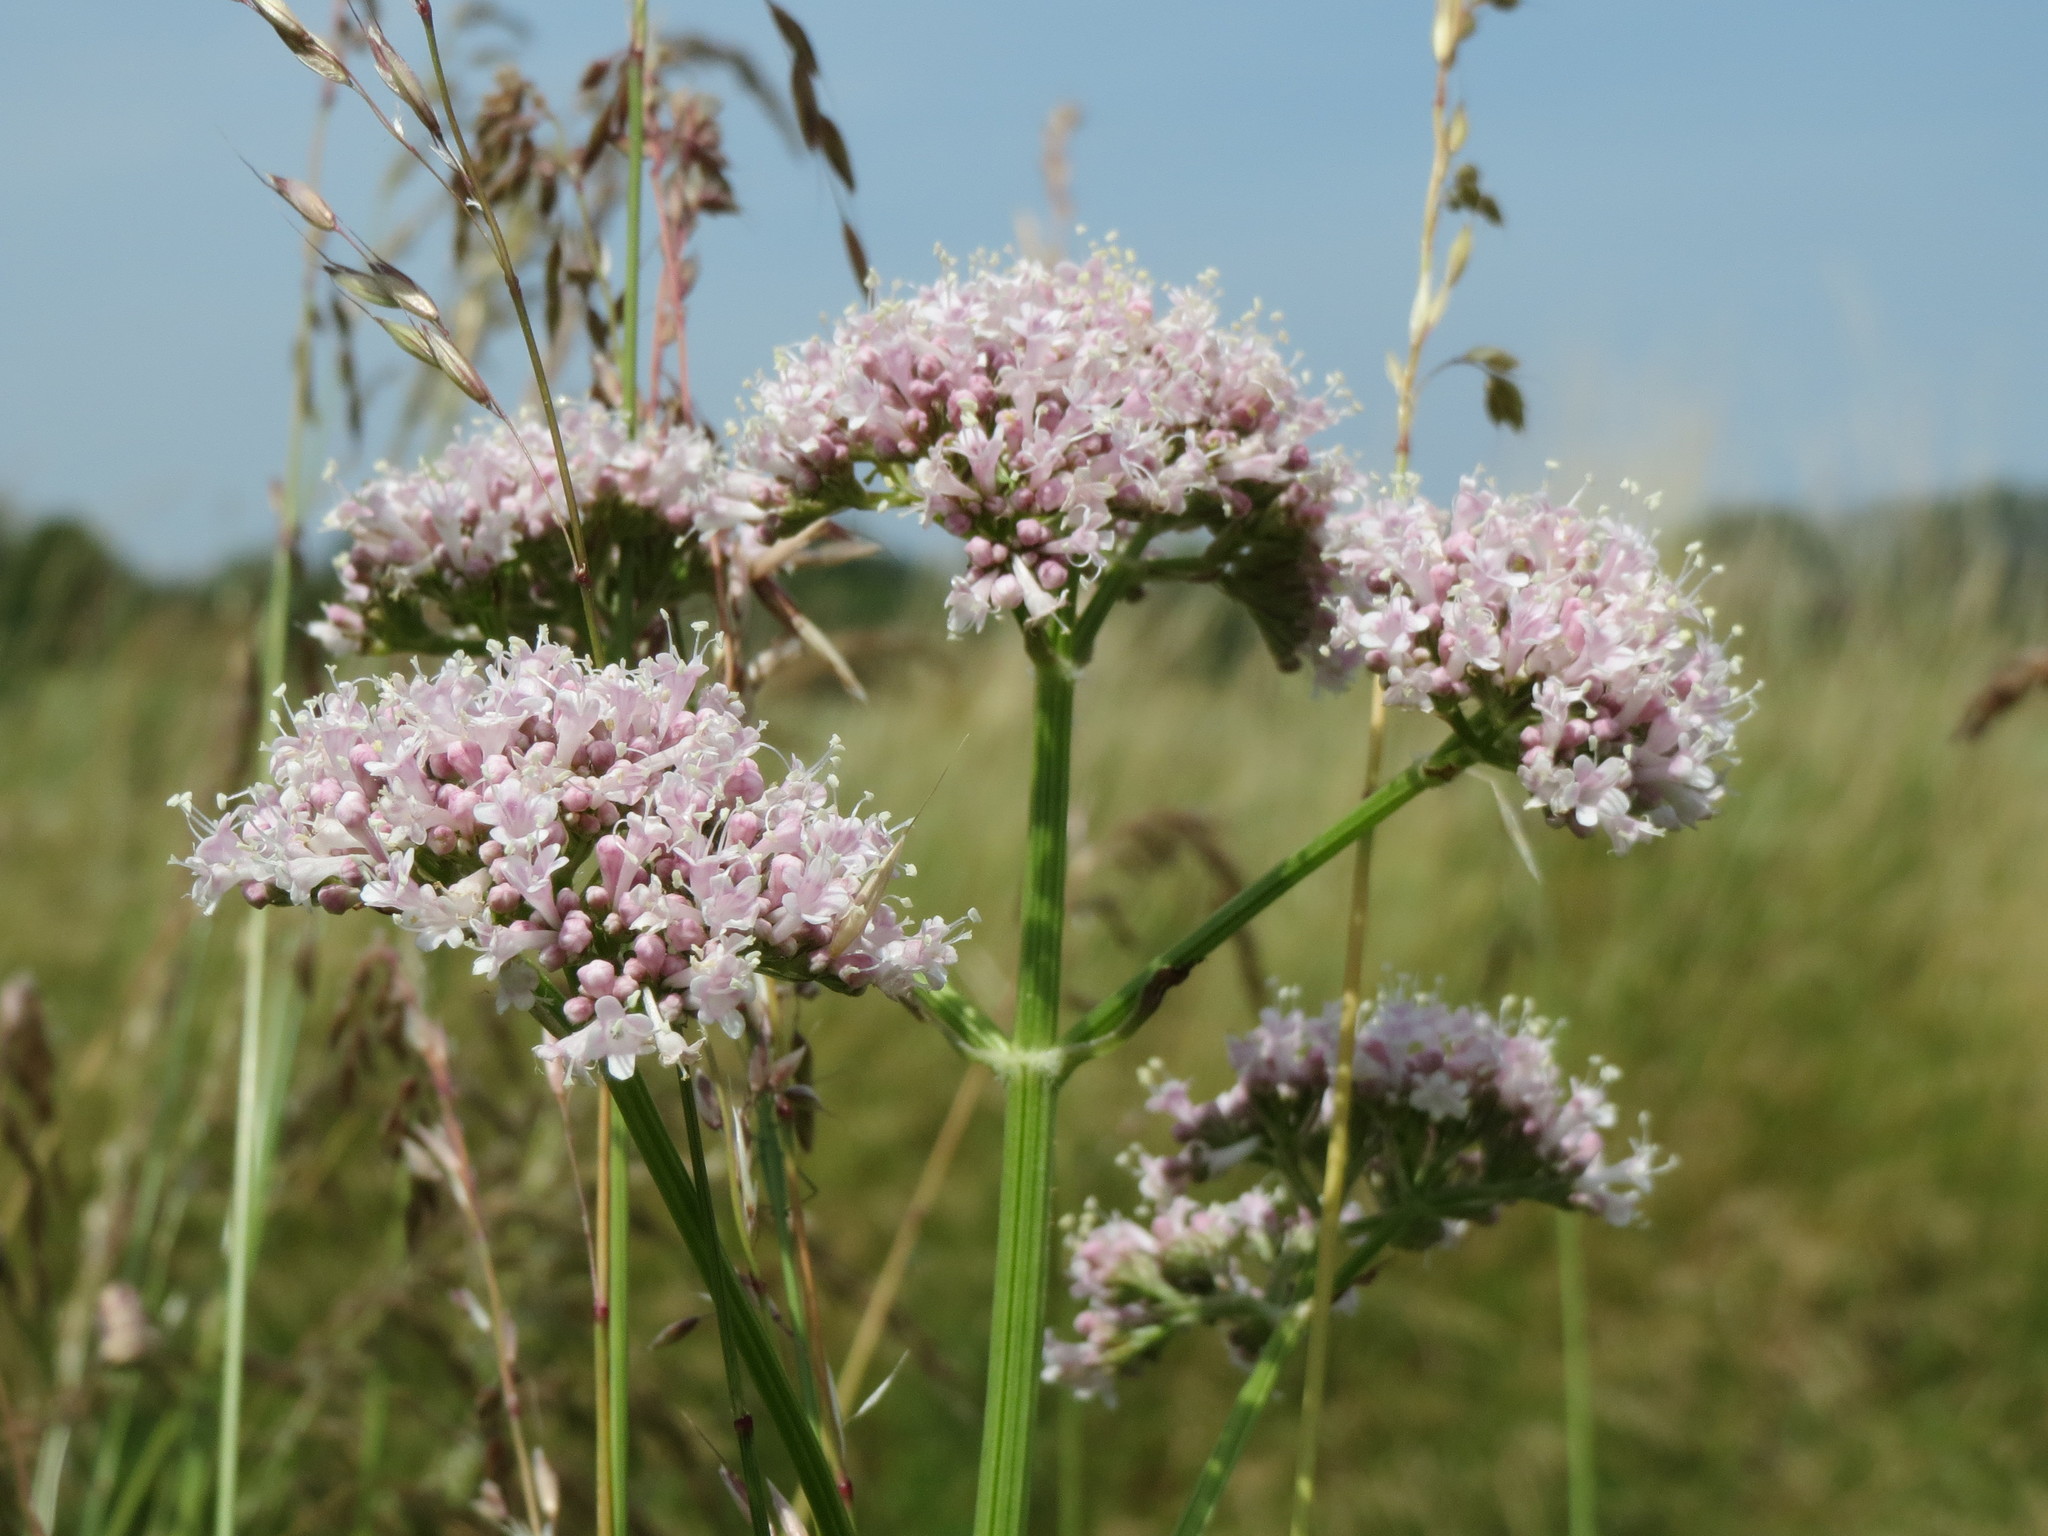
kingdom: Plantae
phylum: Tracheophyta
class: Magnoliopsida
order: Dipsacales
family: Caprifoliaceae
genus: Valeriana
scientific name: Valeriana officinalis
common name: Common valerian
